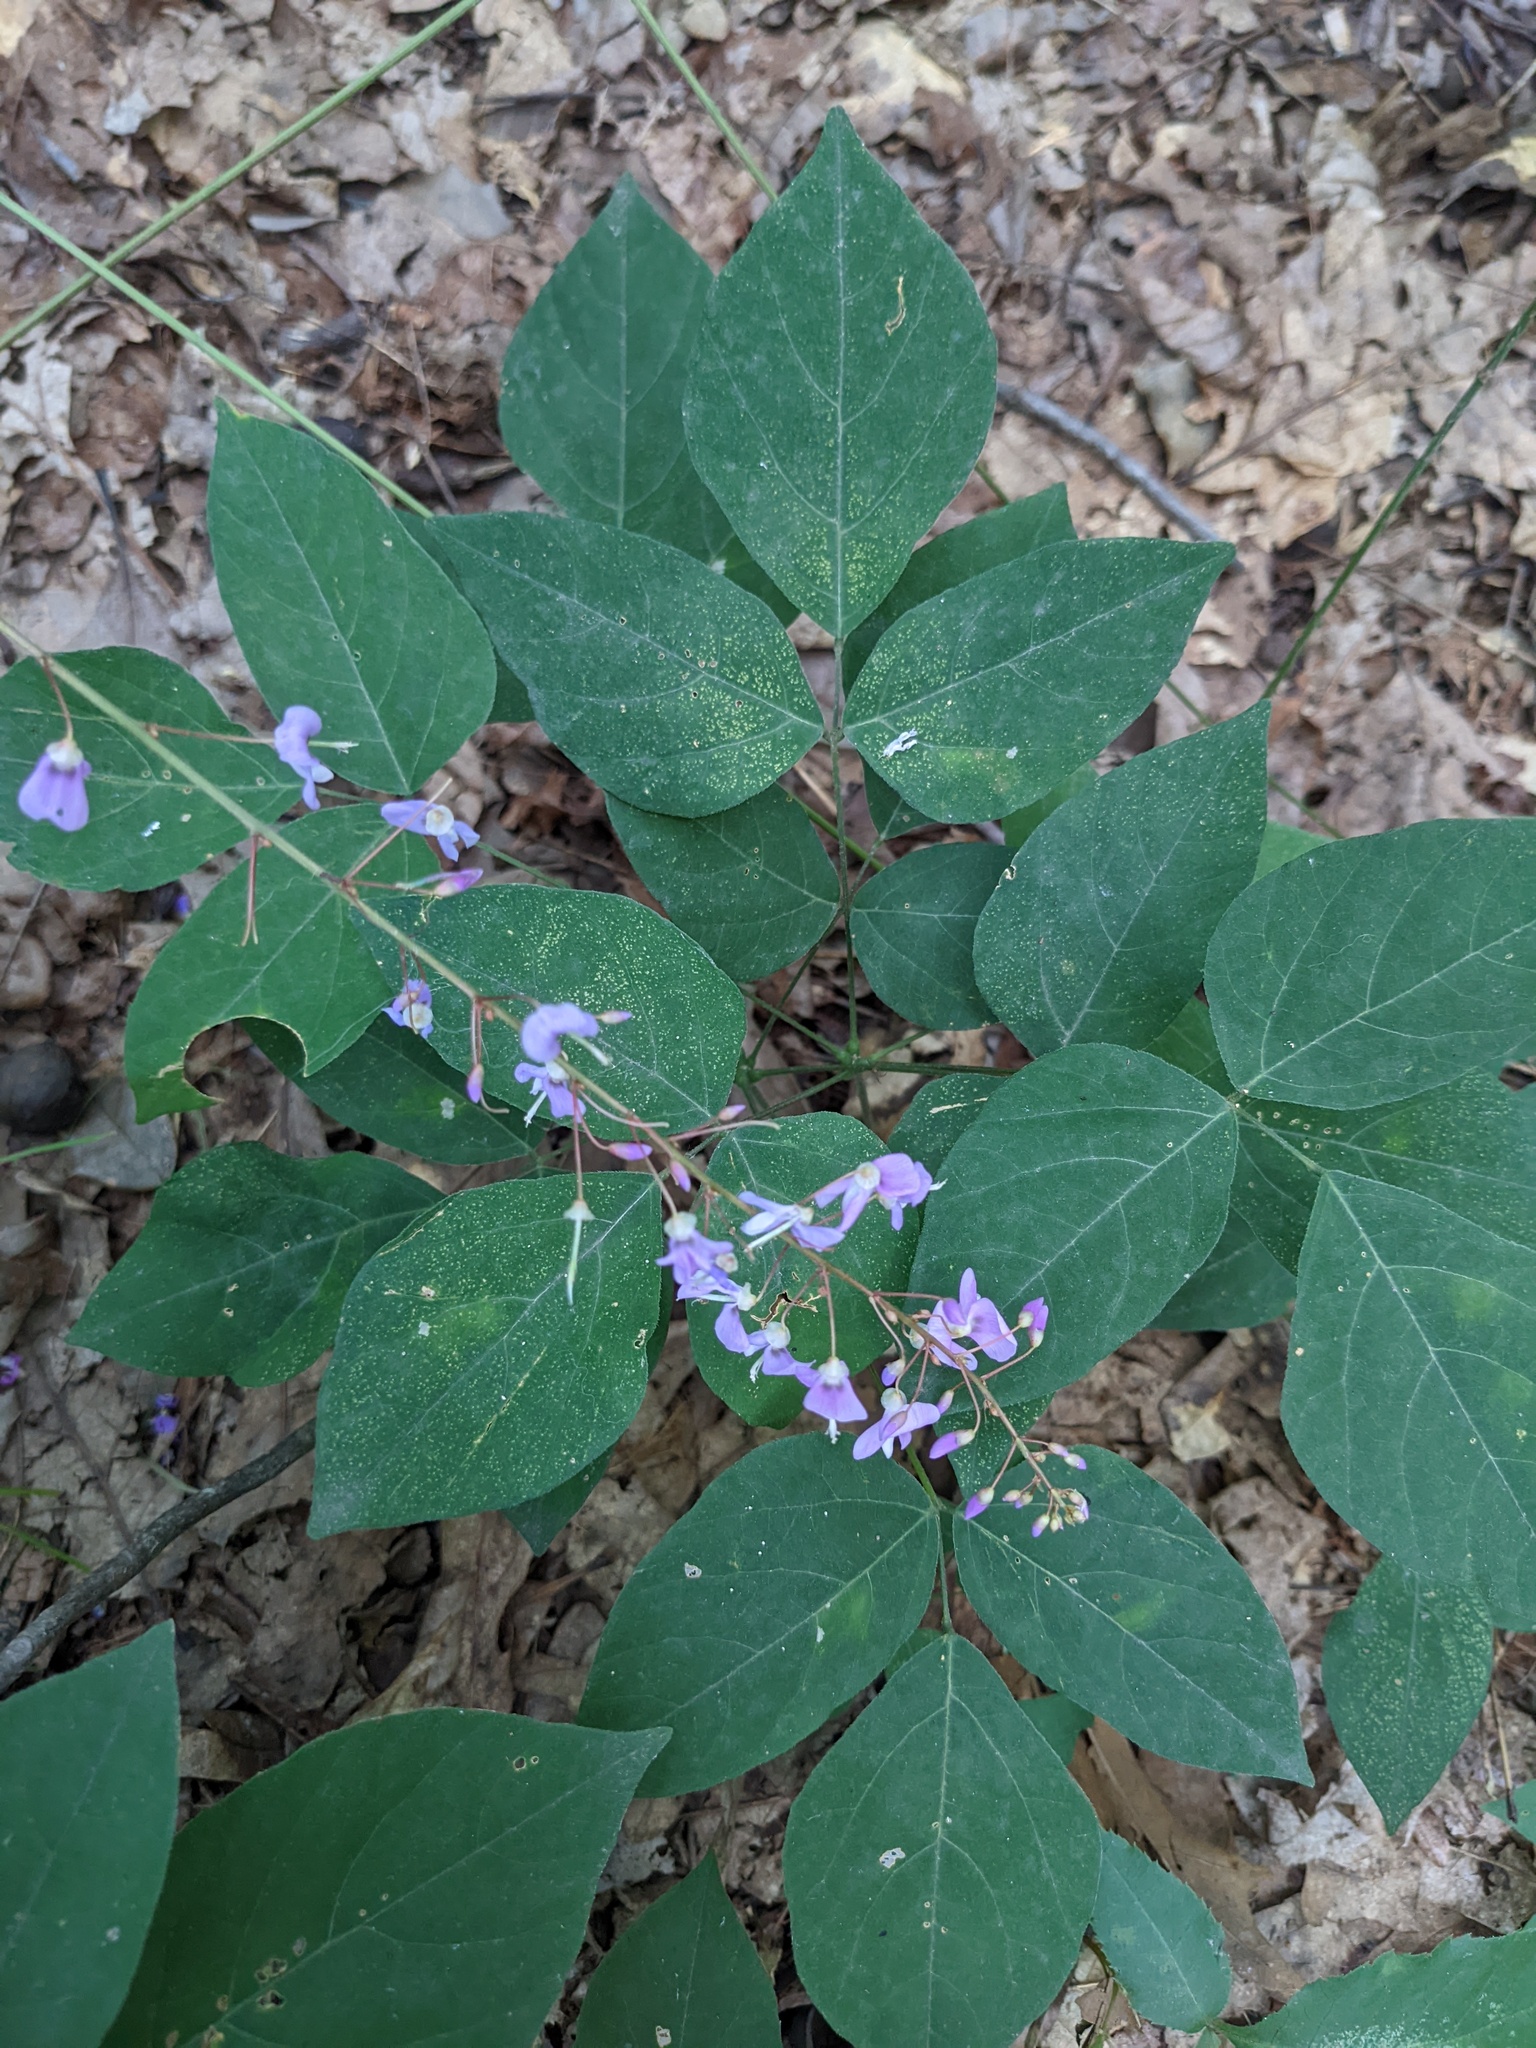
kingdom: Plantae
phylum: Tracheophyta
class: Magnoliopsida
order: Fabales
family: Fabaceae
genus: Hylodesmum
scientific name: Hylodesmum nudiflorum
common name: Bare-stemmed tick-trefoil
